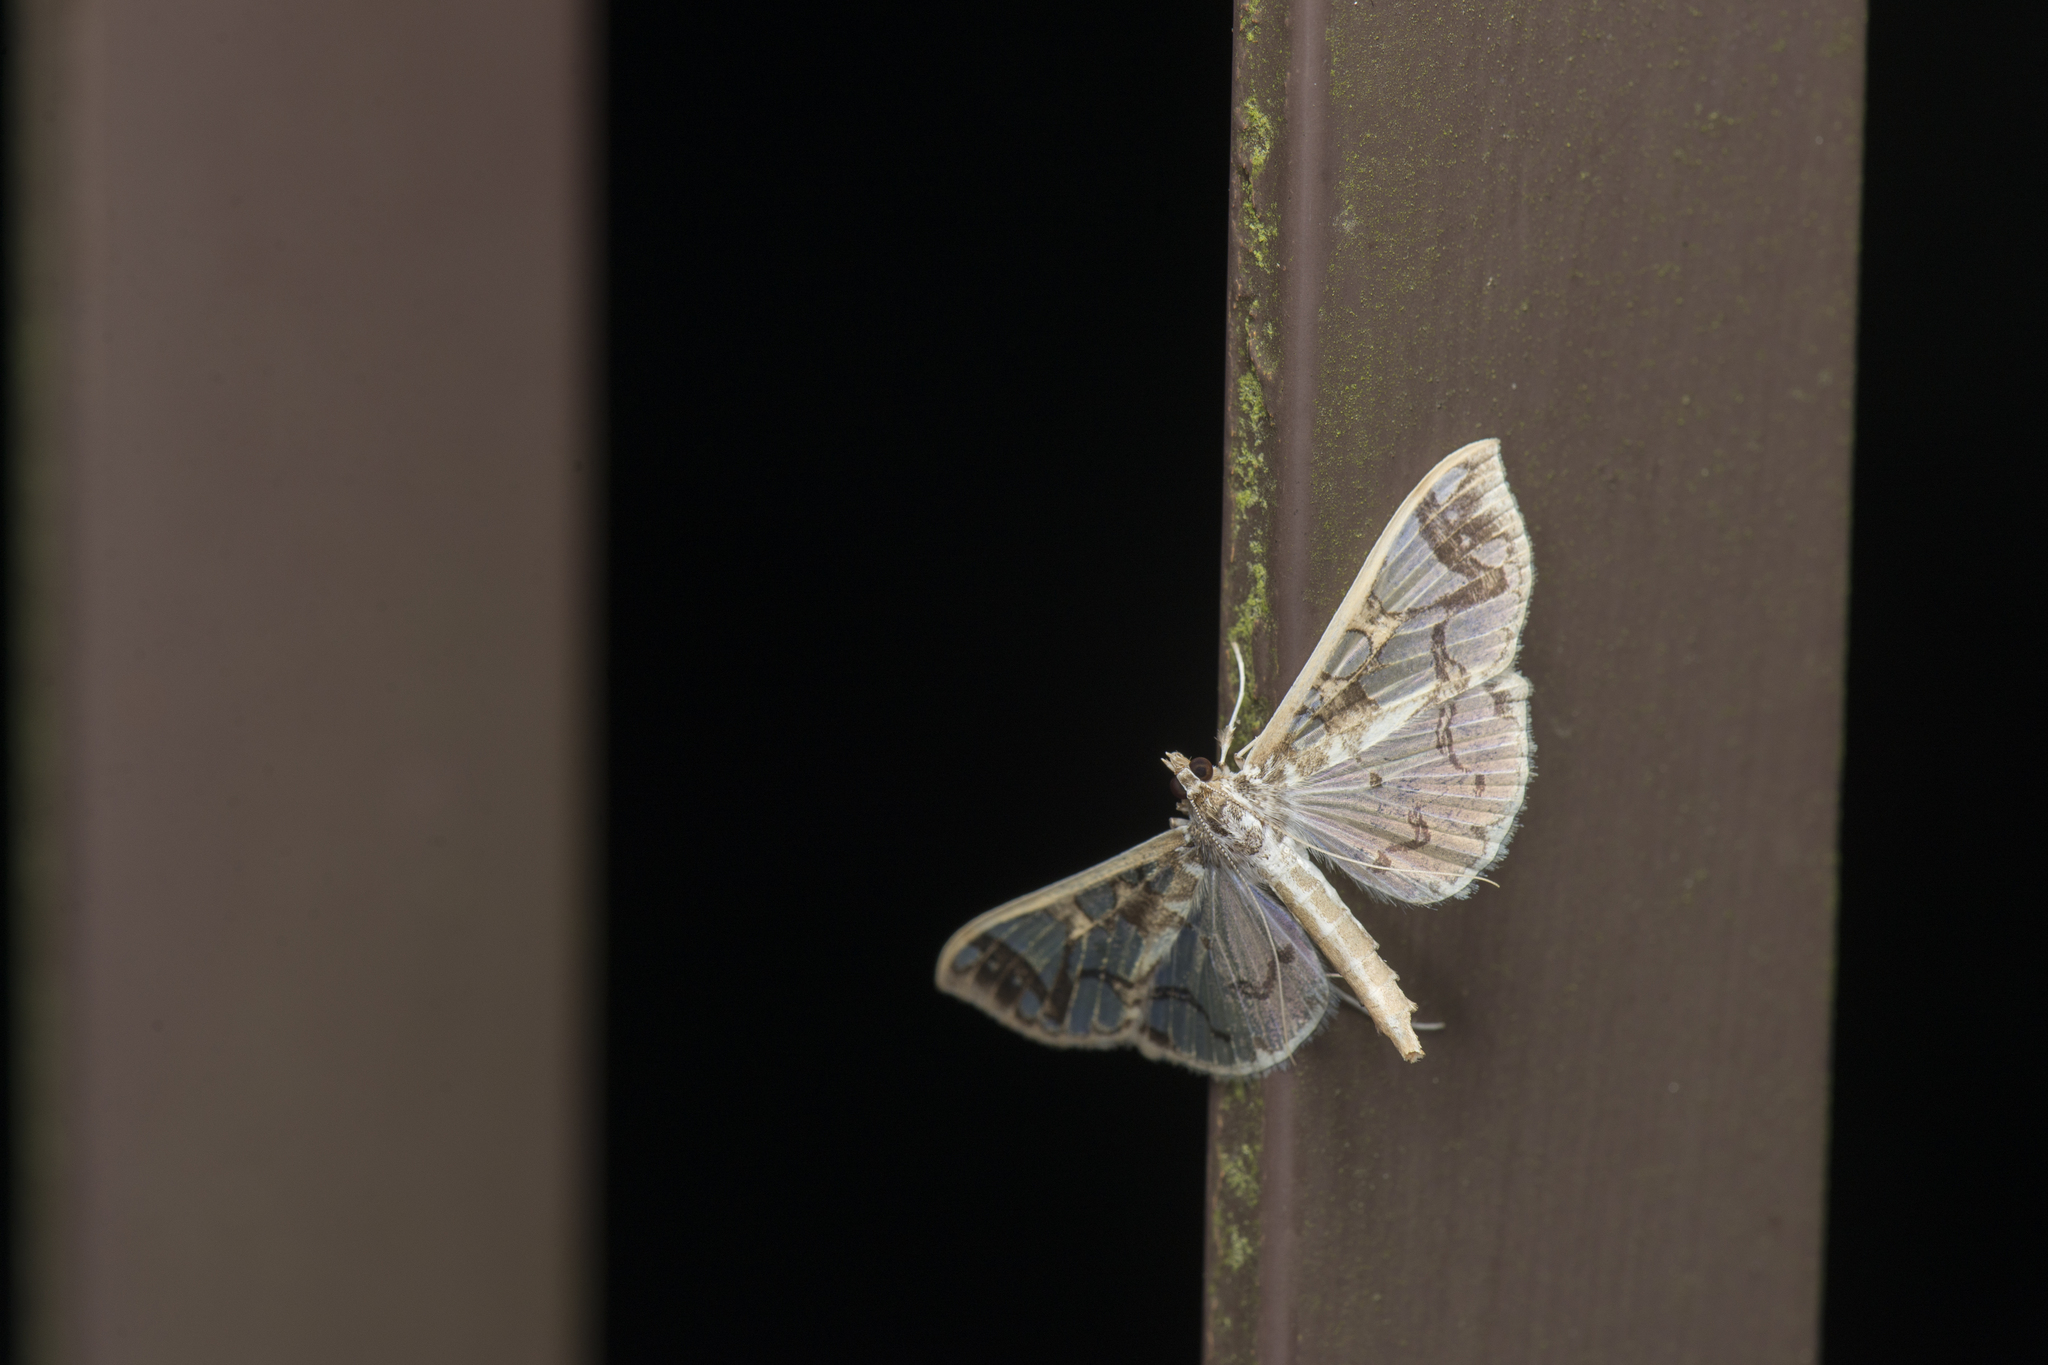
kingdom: Animalia
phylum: Arthropoda
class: Insecta
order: Lepidoptera
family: Crambidae
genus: Polythlipta
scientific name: Polythlipta divaricata
